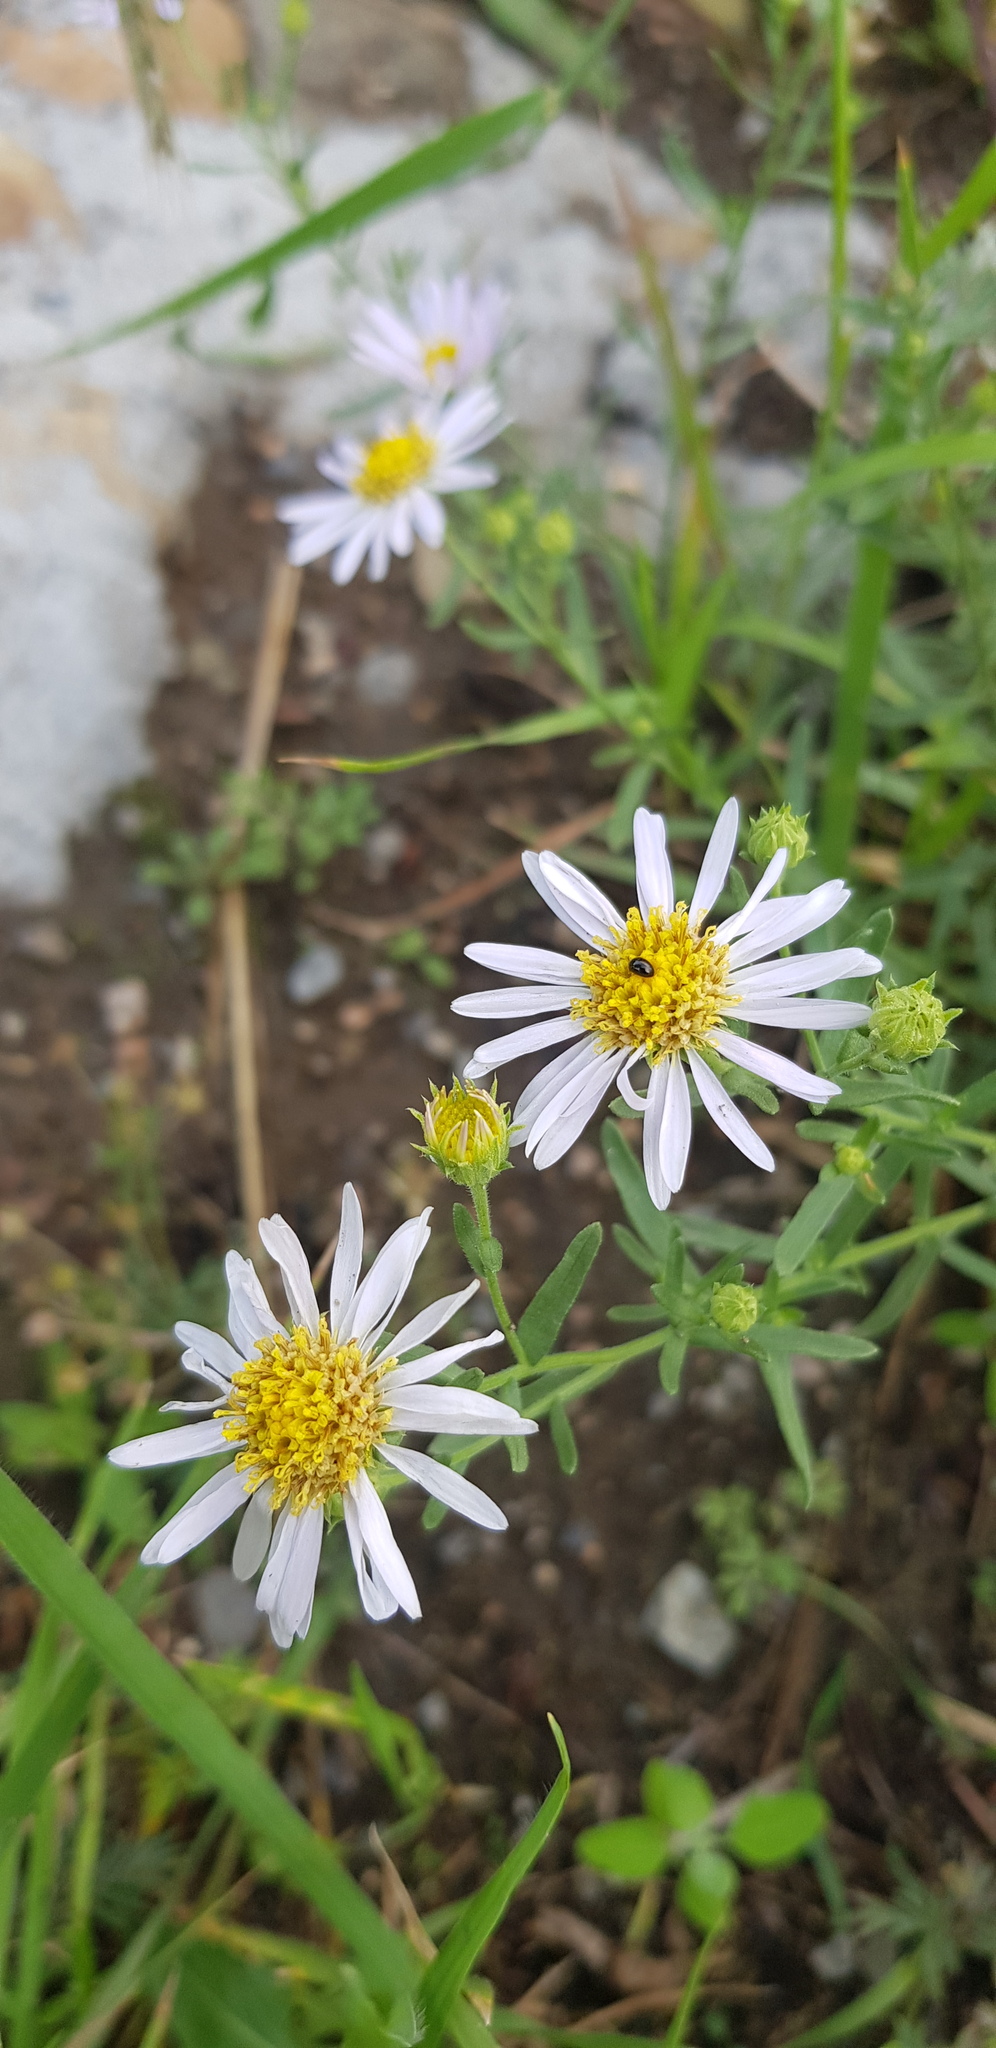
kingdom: Plantae
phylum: Tracheophyta
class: Magnoliopsida
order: Asterales
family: Asteraceae
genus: Heteropappus
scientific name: Heteropappus altaicus
